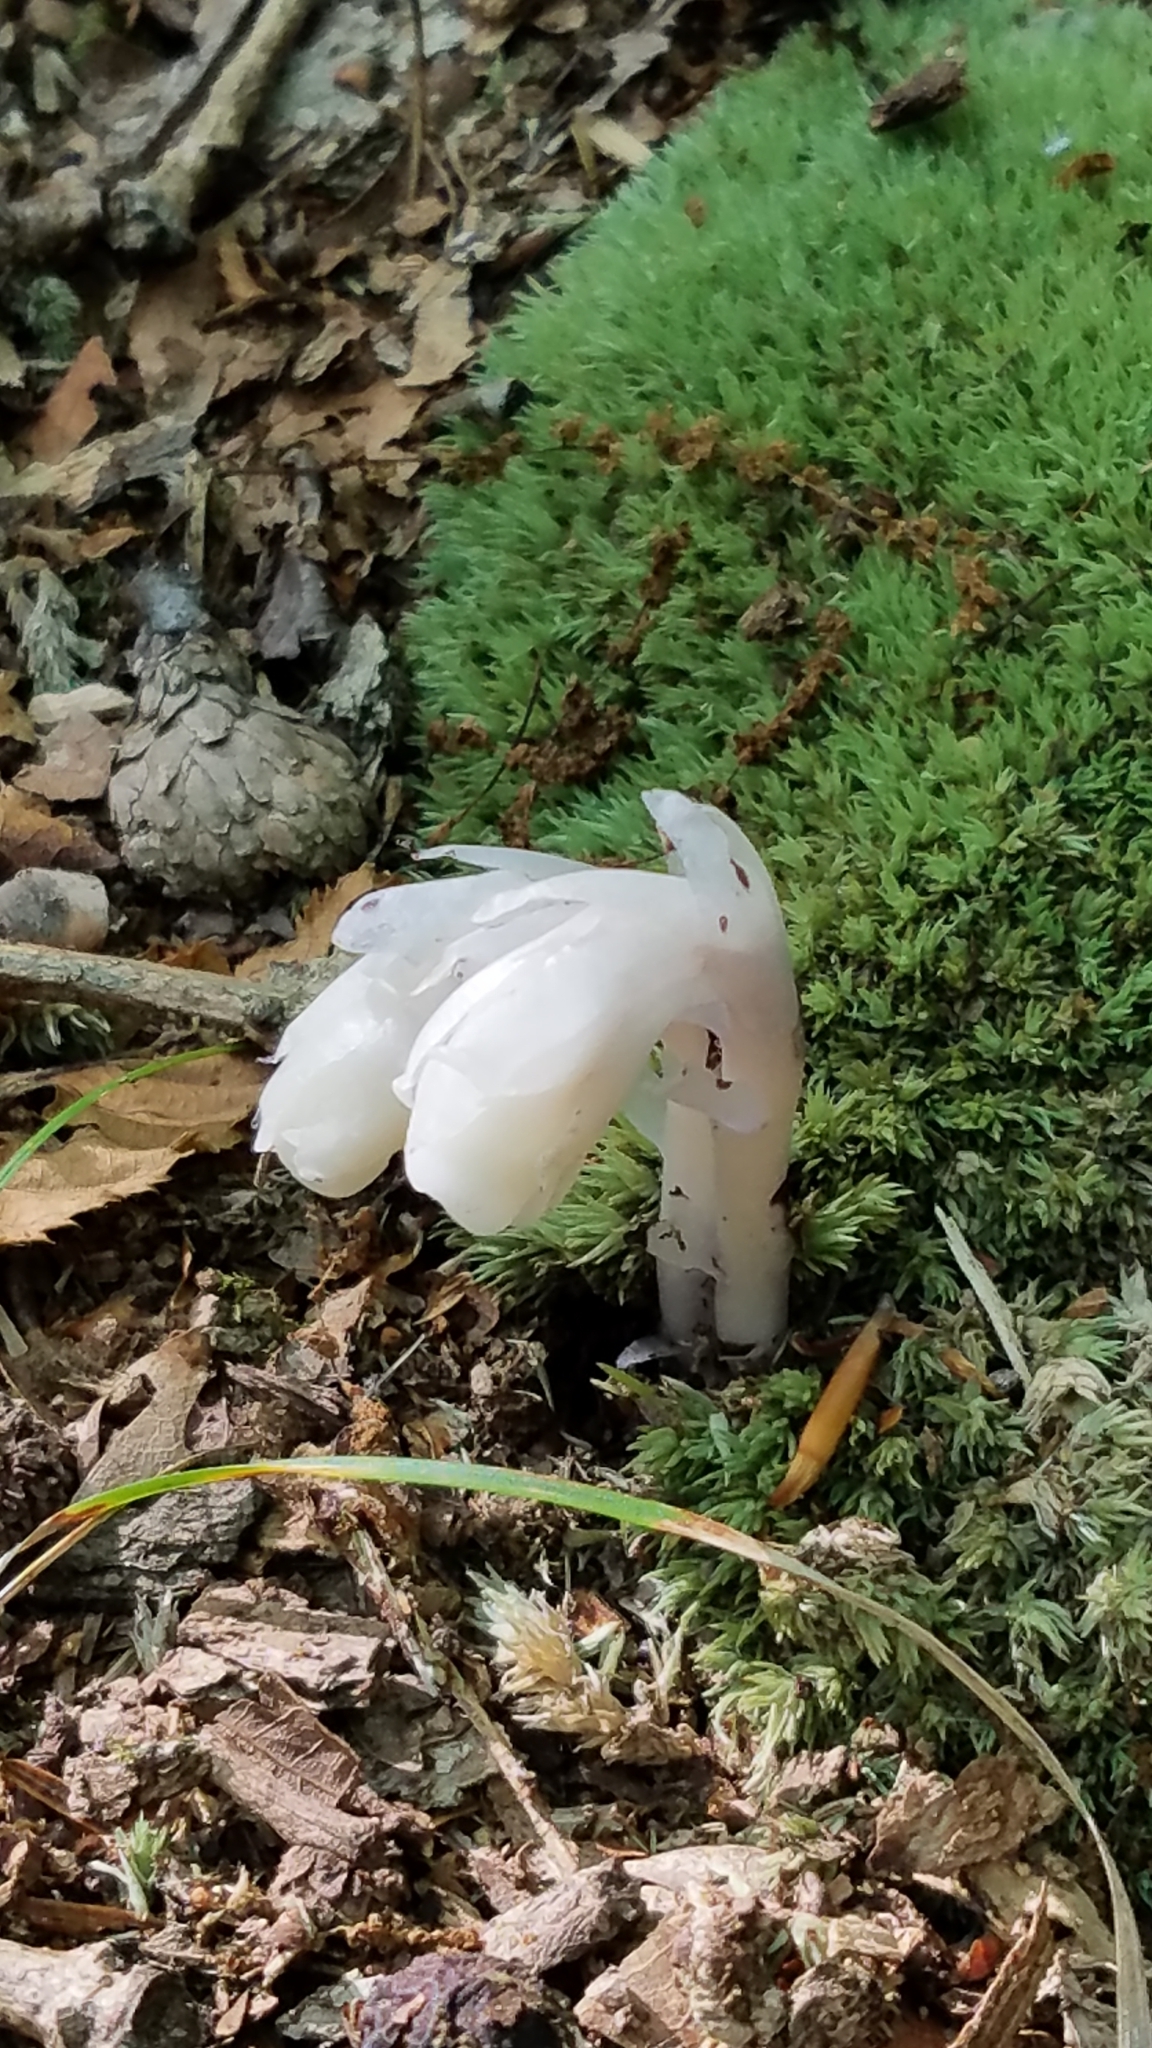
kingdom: Plantae
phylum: Tracheophyta
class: Magnoliopsida
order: Ericales
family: Ericaceae
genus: Monotropa
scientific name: Monotropa uniflora
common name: Convulsion root
